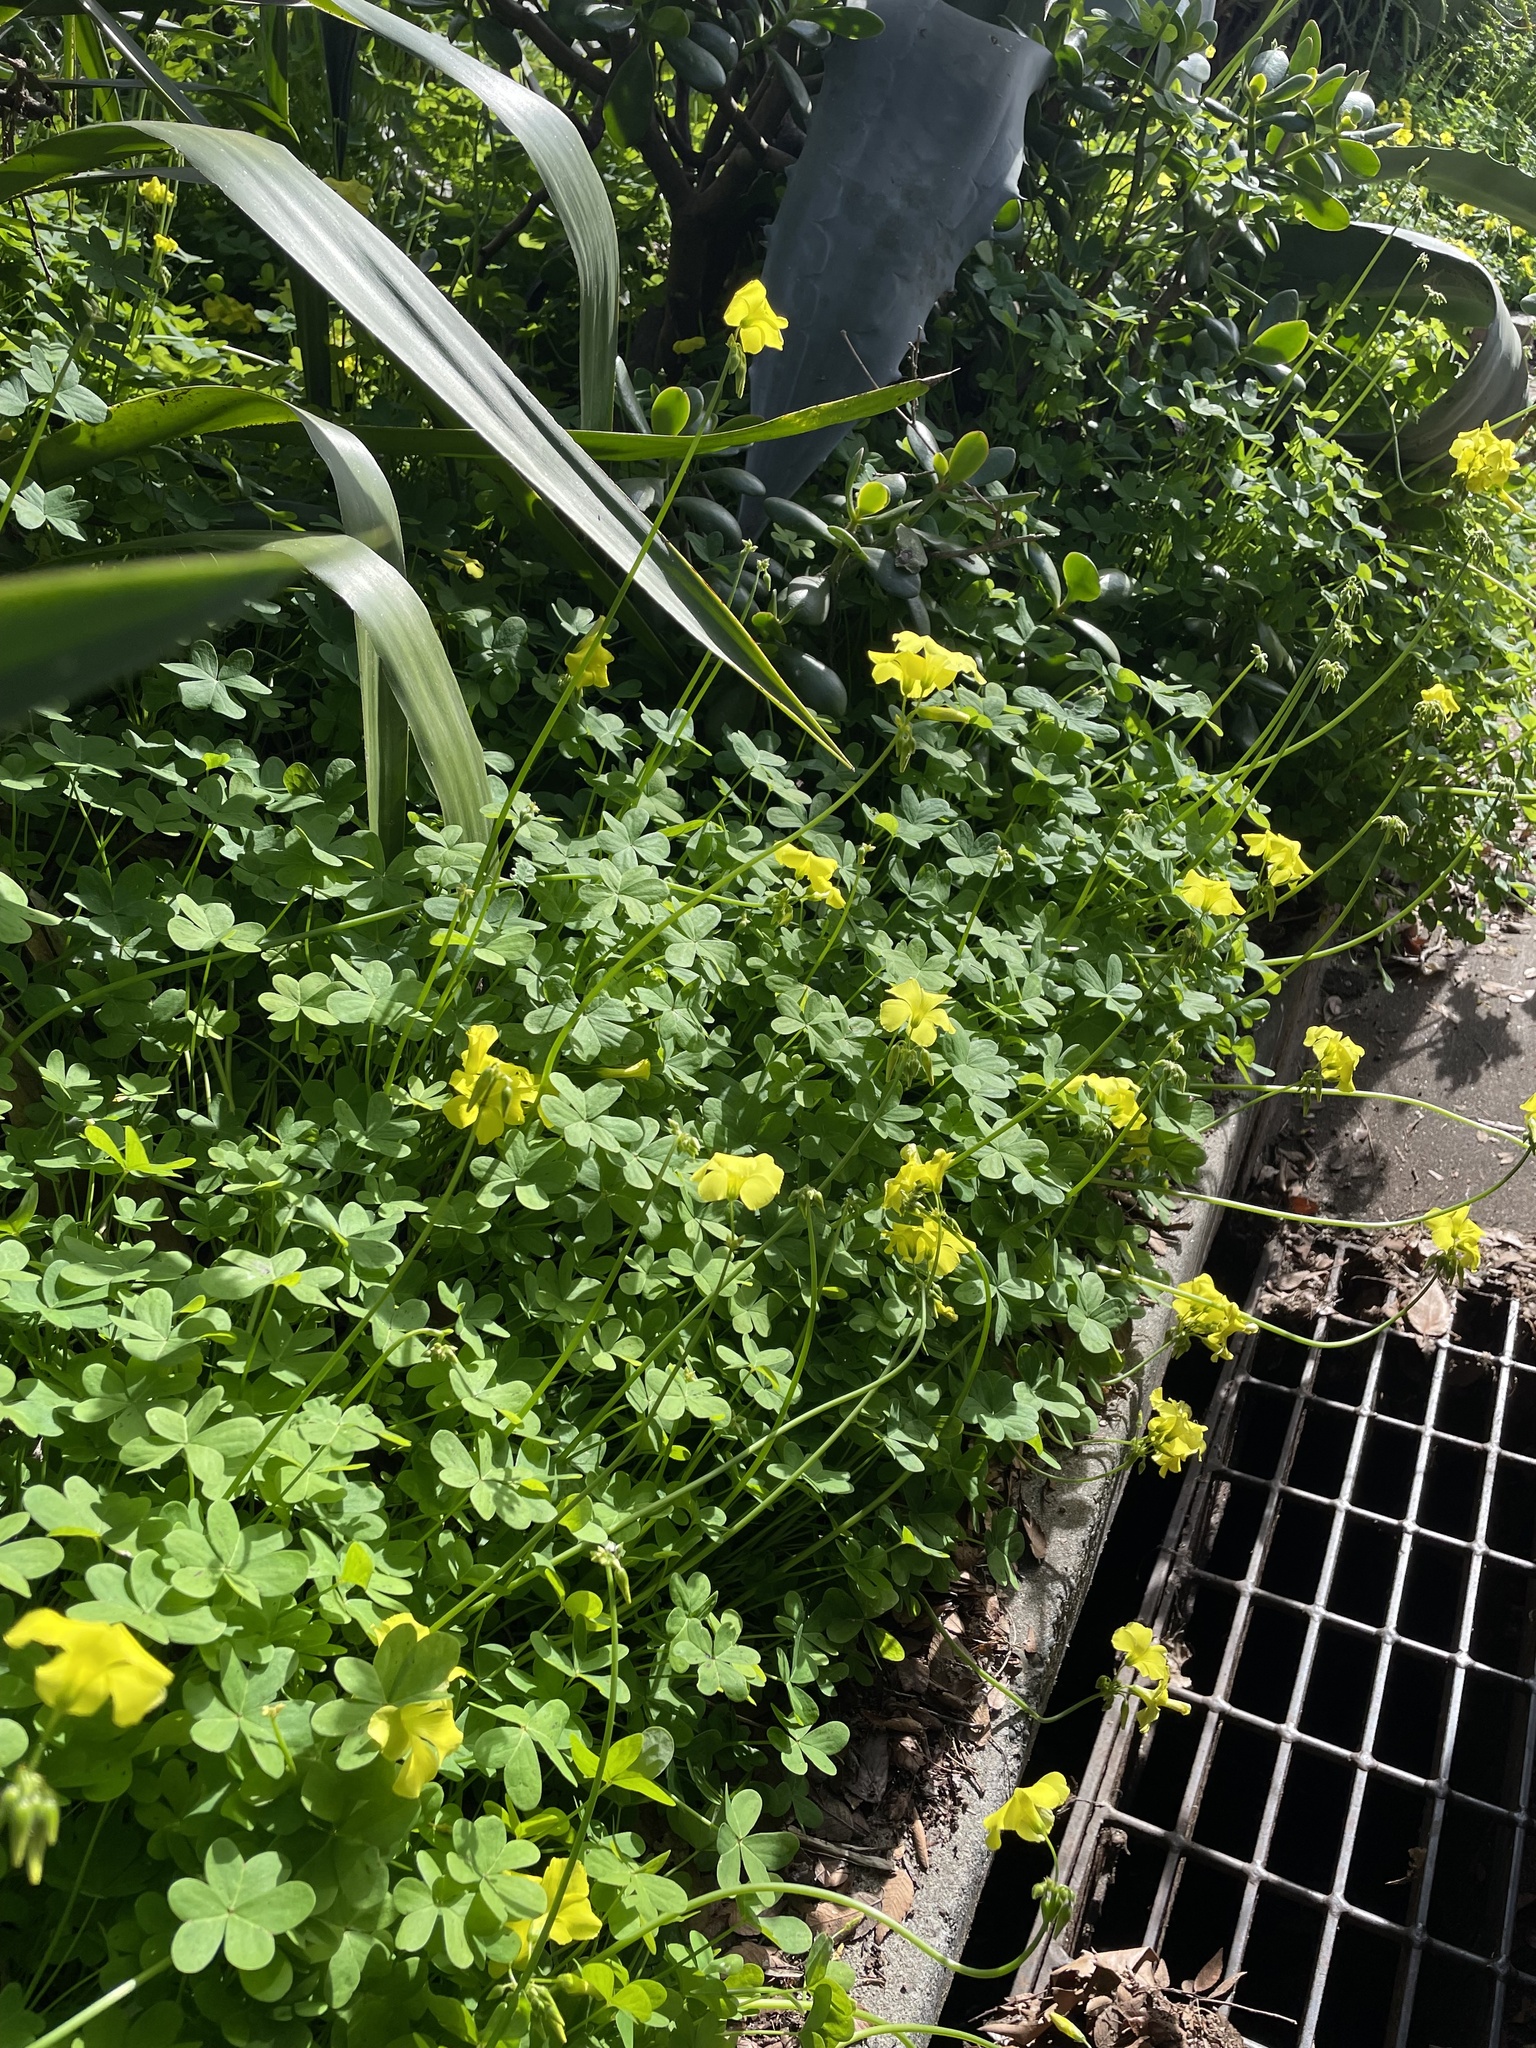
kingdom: Plantae
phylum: Tracheophyta
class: Magnoliopsida
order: Oxalidales
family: Oxalidaceae
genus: Oxalis
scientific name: Oxalis pes-caprae
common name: Bermuda-buttercup
